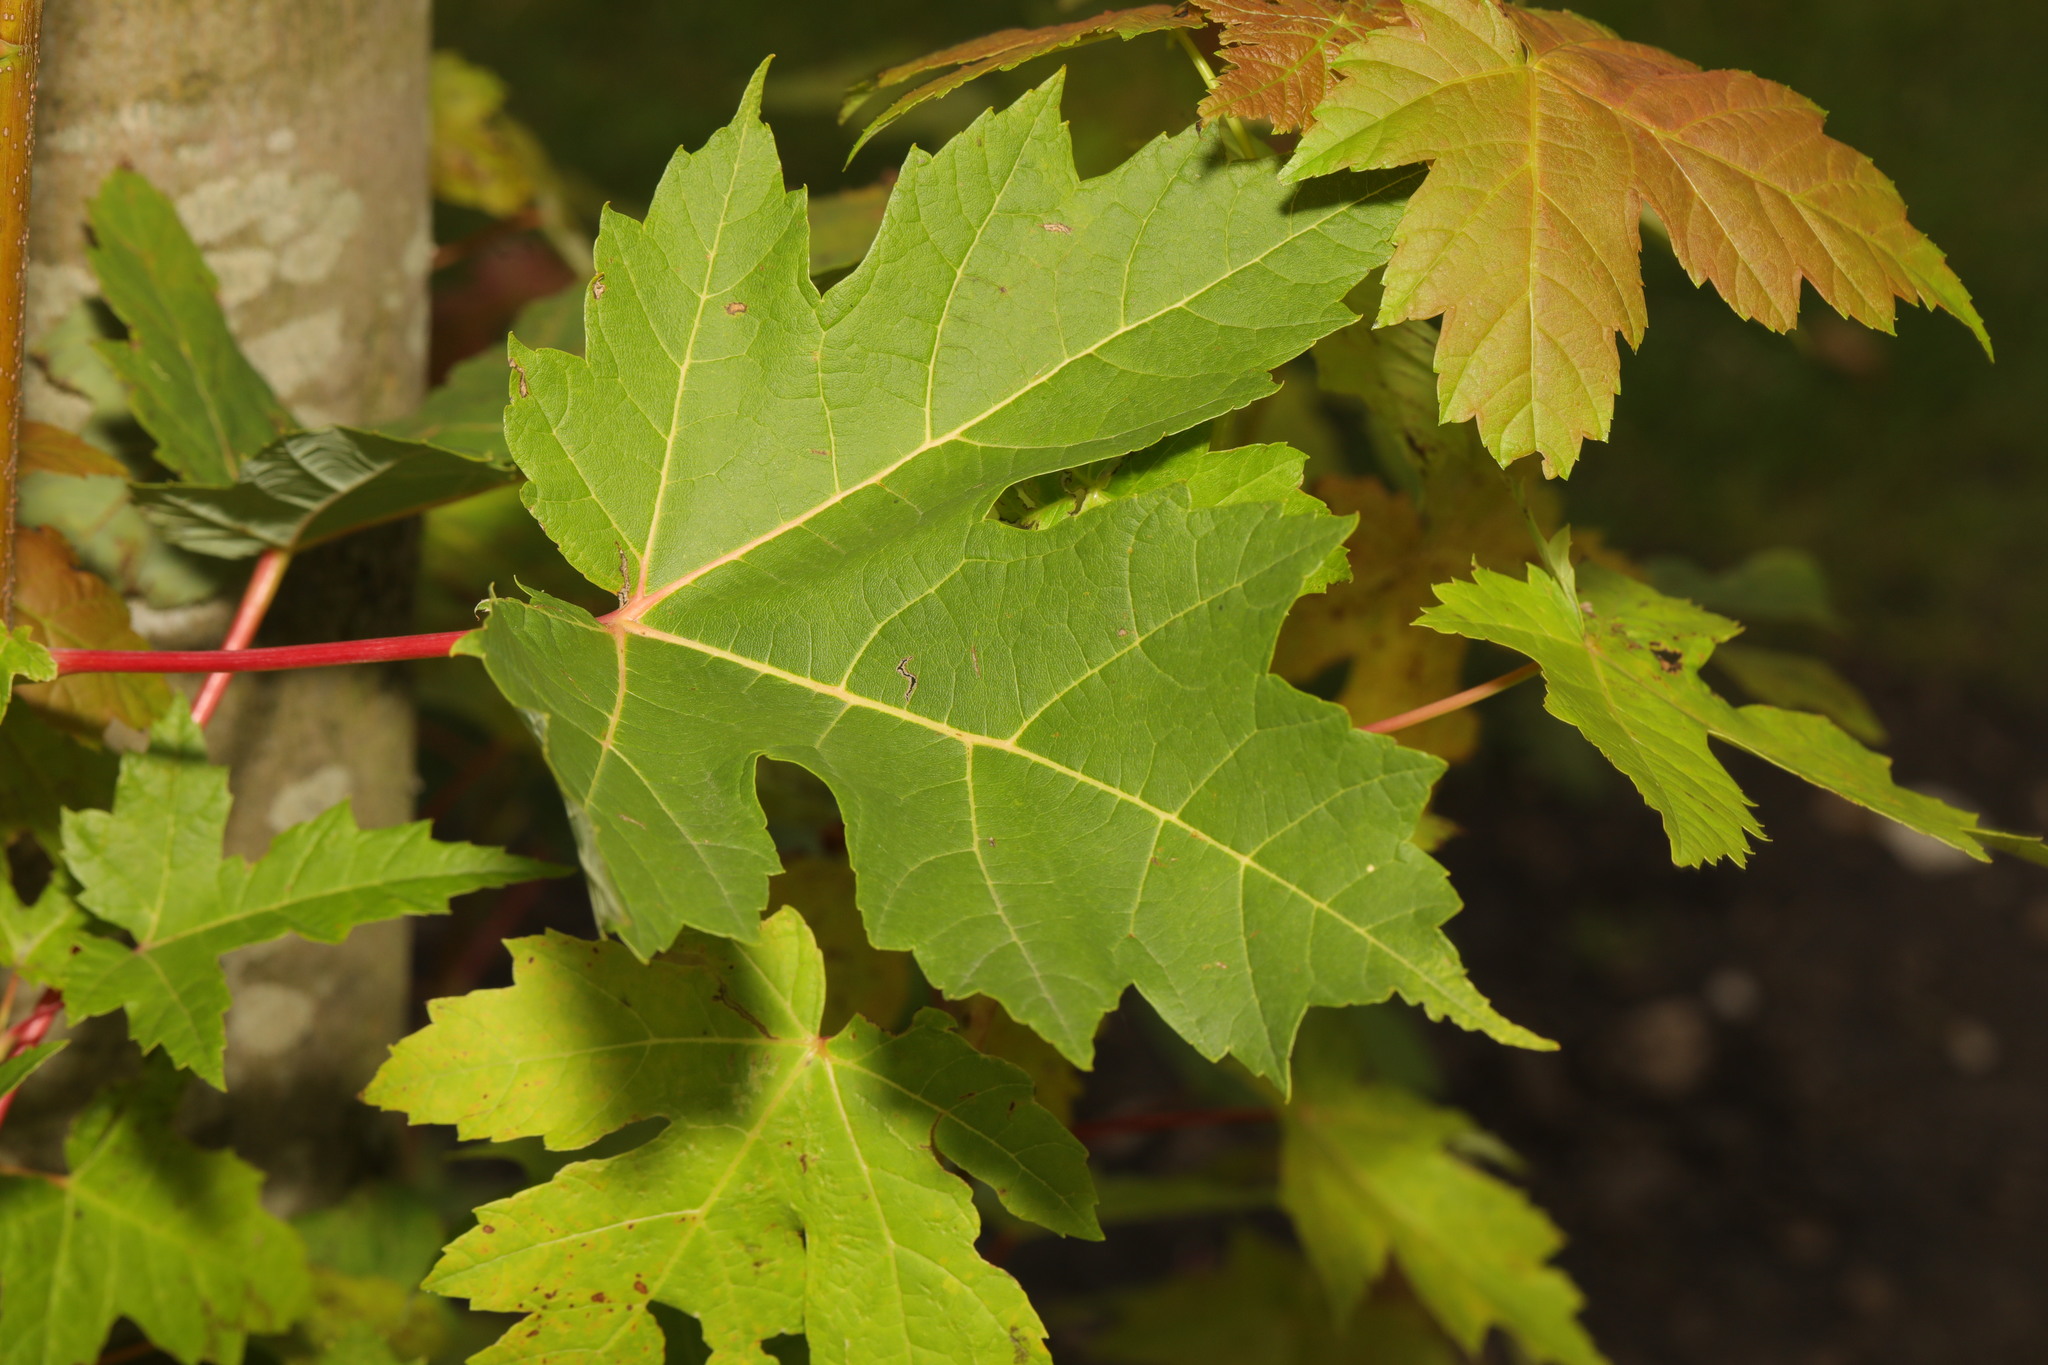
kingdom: Plantae
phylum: Tracheophyta
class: Magnoliopsida
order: Sapindales
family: Sapindaceae
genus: Acer
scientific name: Acer saccharinum
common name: Silver maple
